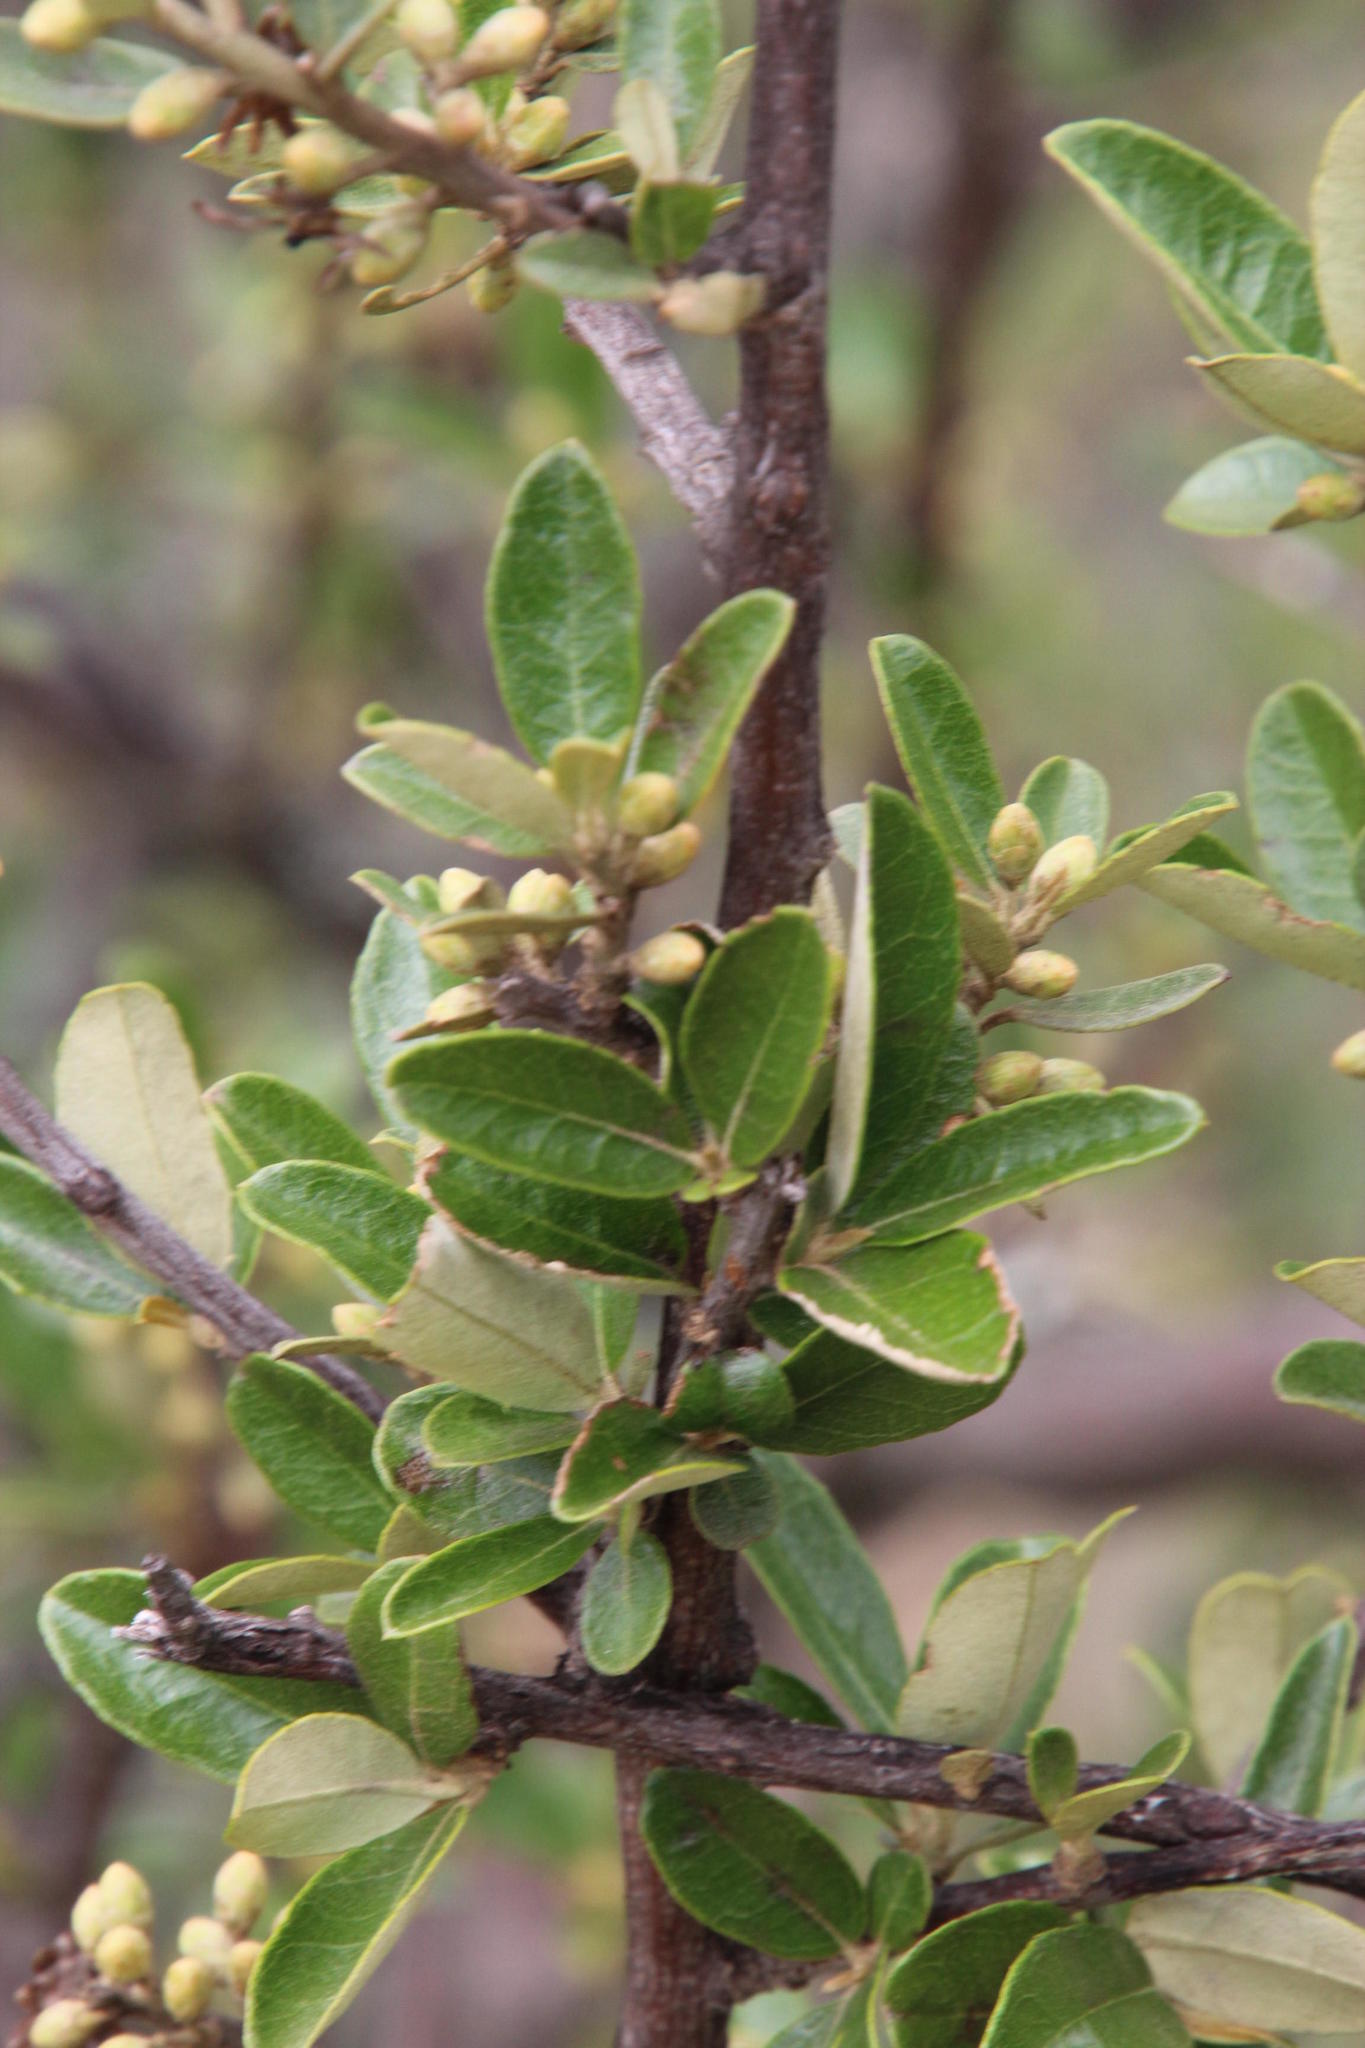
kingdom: Plantae
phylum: Tracheophyta
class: Magnoliopsida
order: Asterales
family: Asteraceae
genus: Brachylaena
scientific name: Brachylaena ilicifolia
